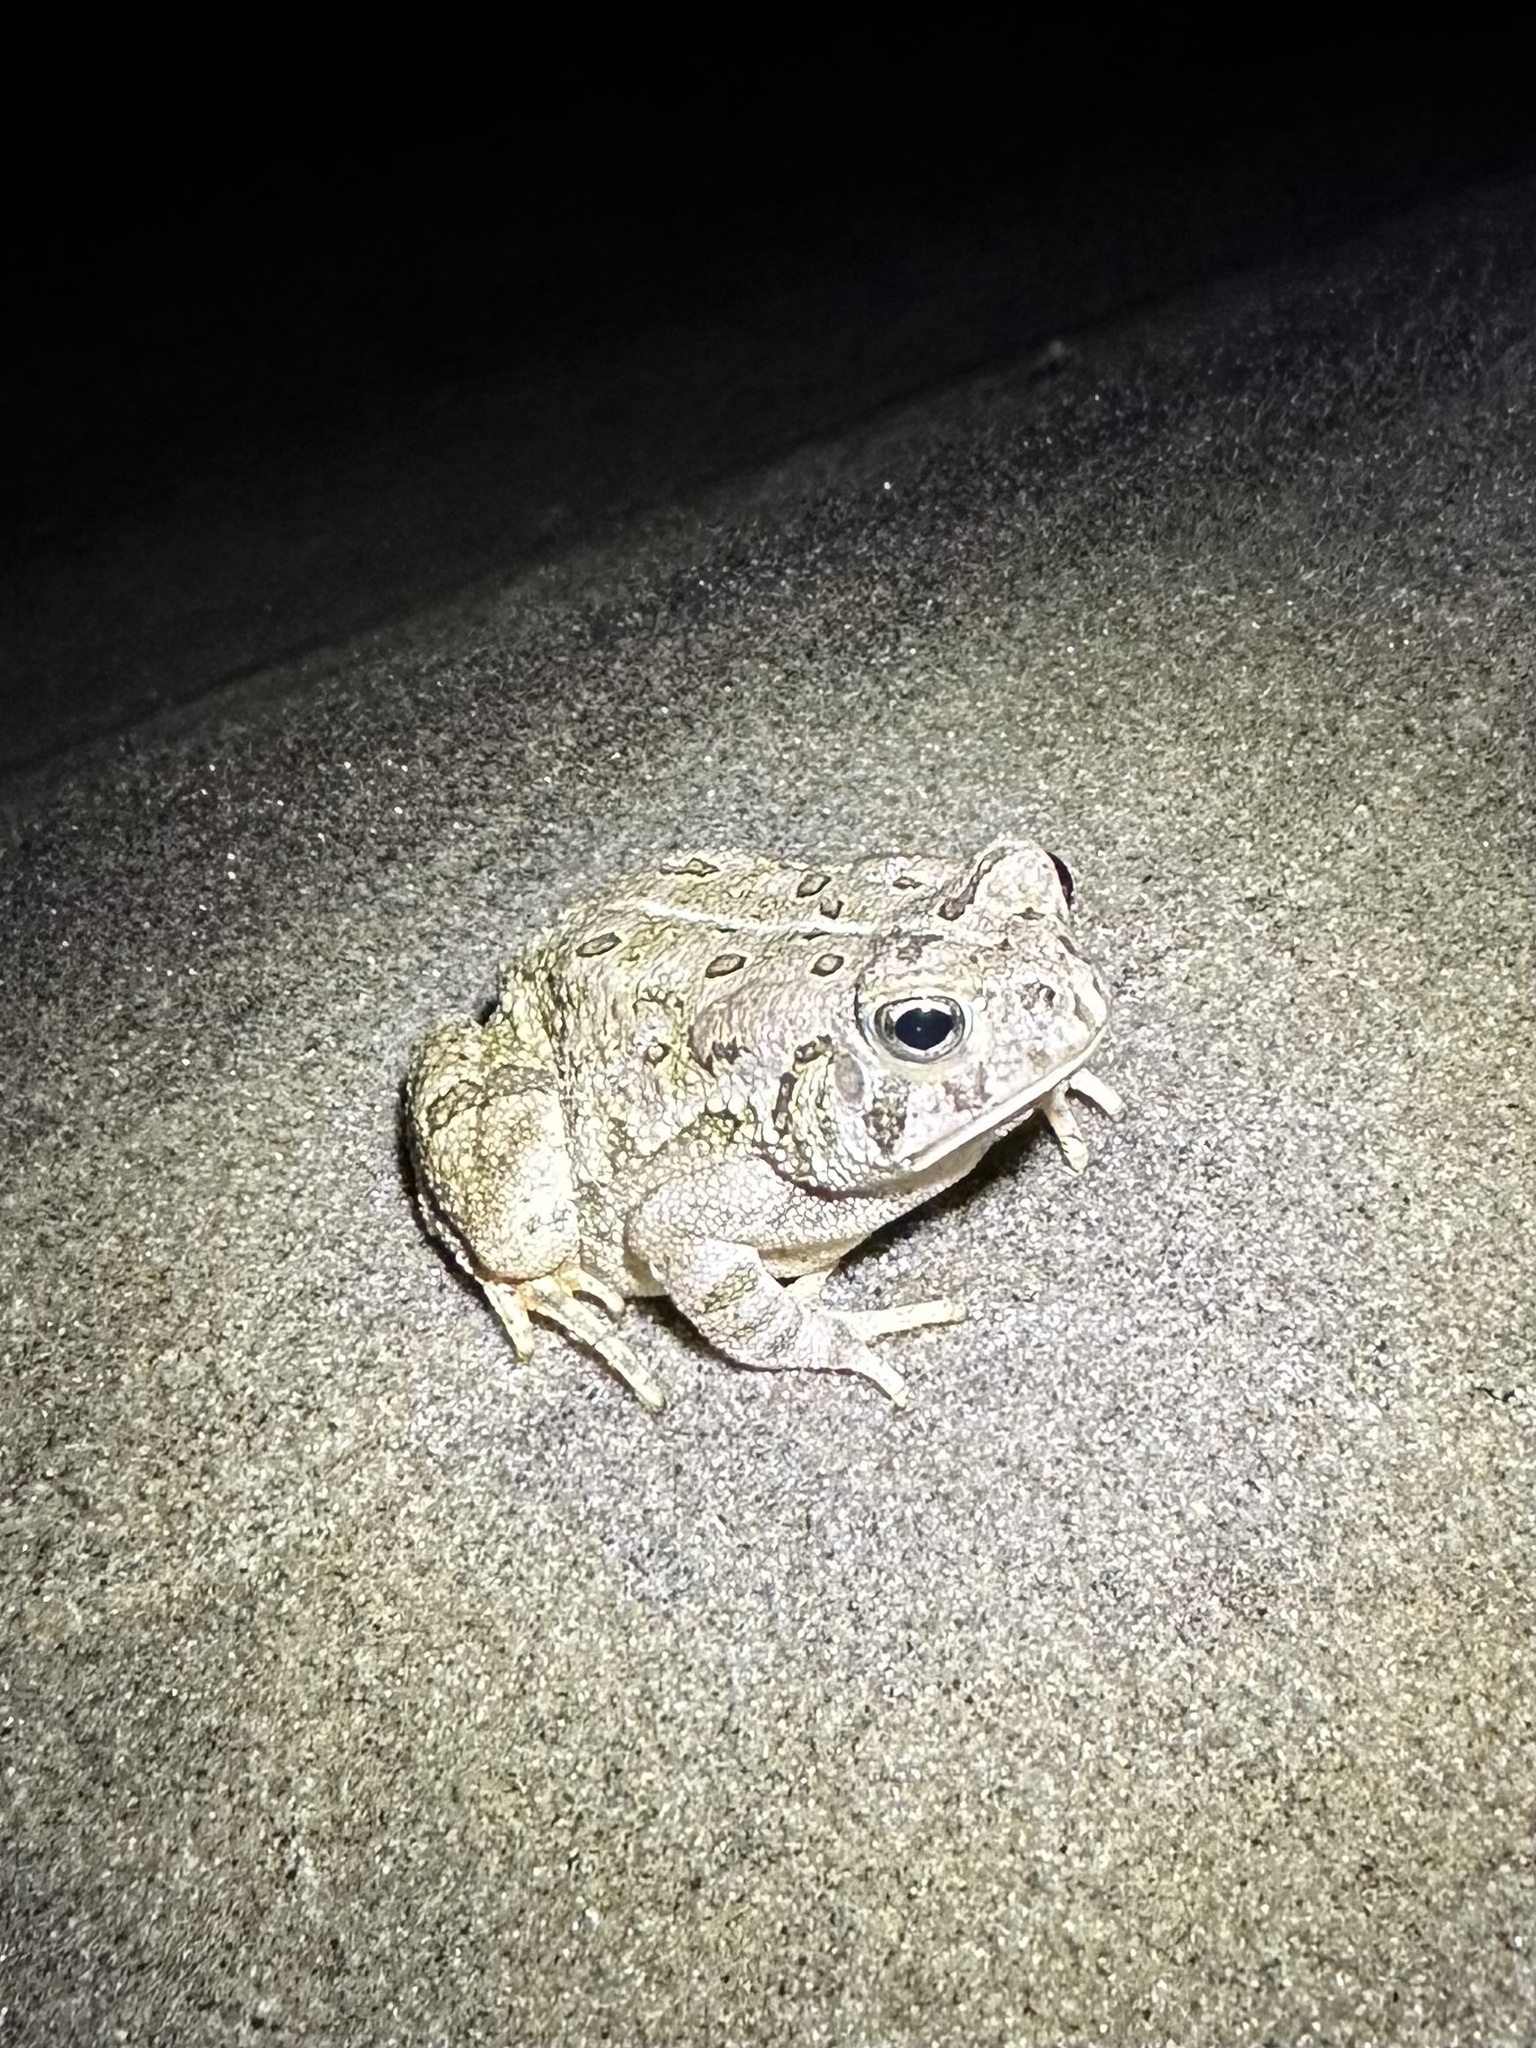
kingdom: Animalia
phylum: Chordata
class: Amphibia
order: Anura
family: Bufonidae
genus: Anaxyrus
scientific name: Anaxyrus fowleri
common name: Fowler's toad
